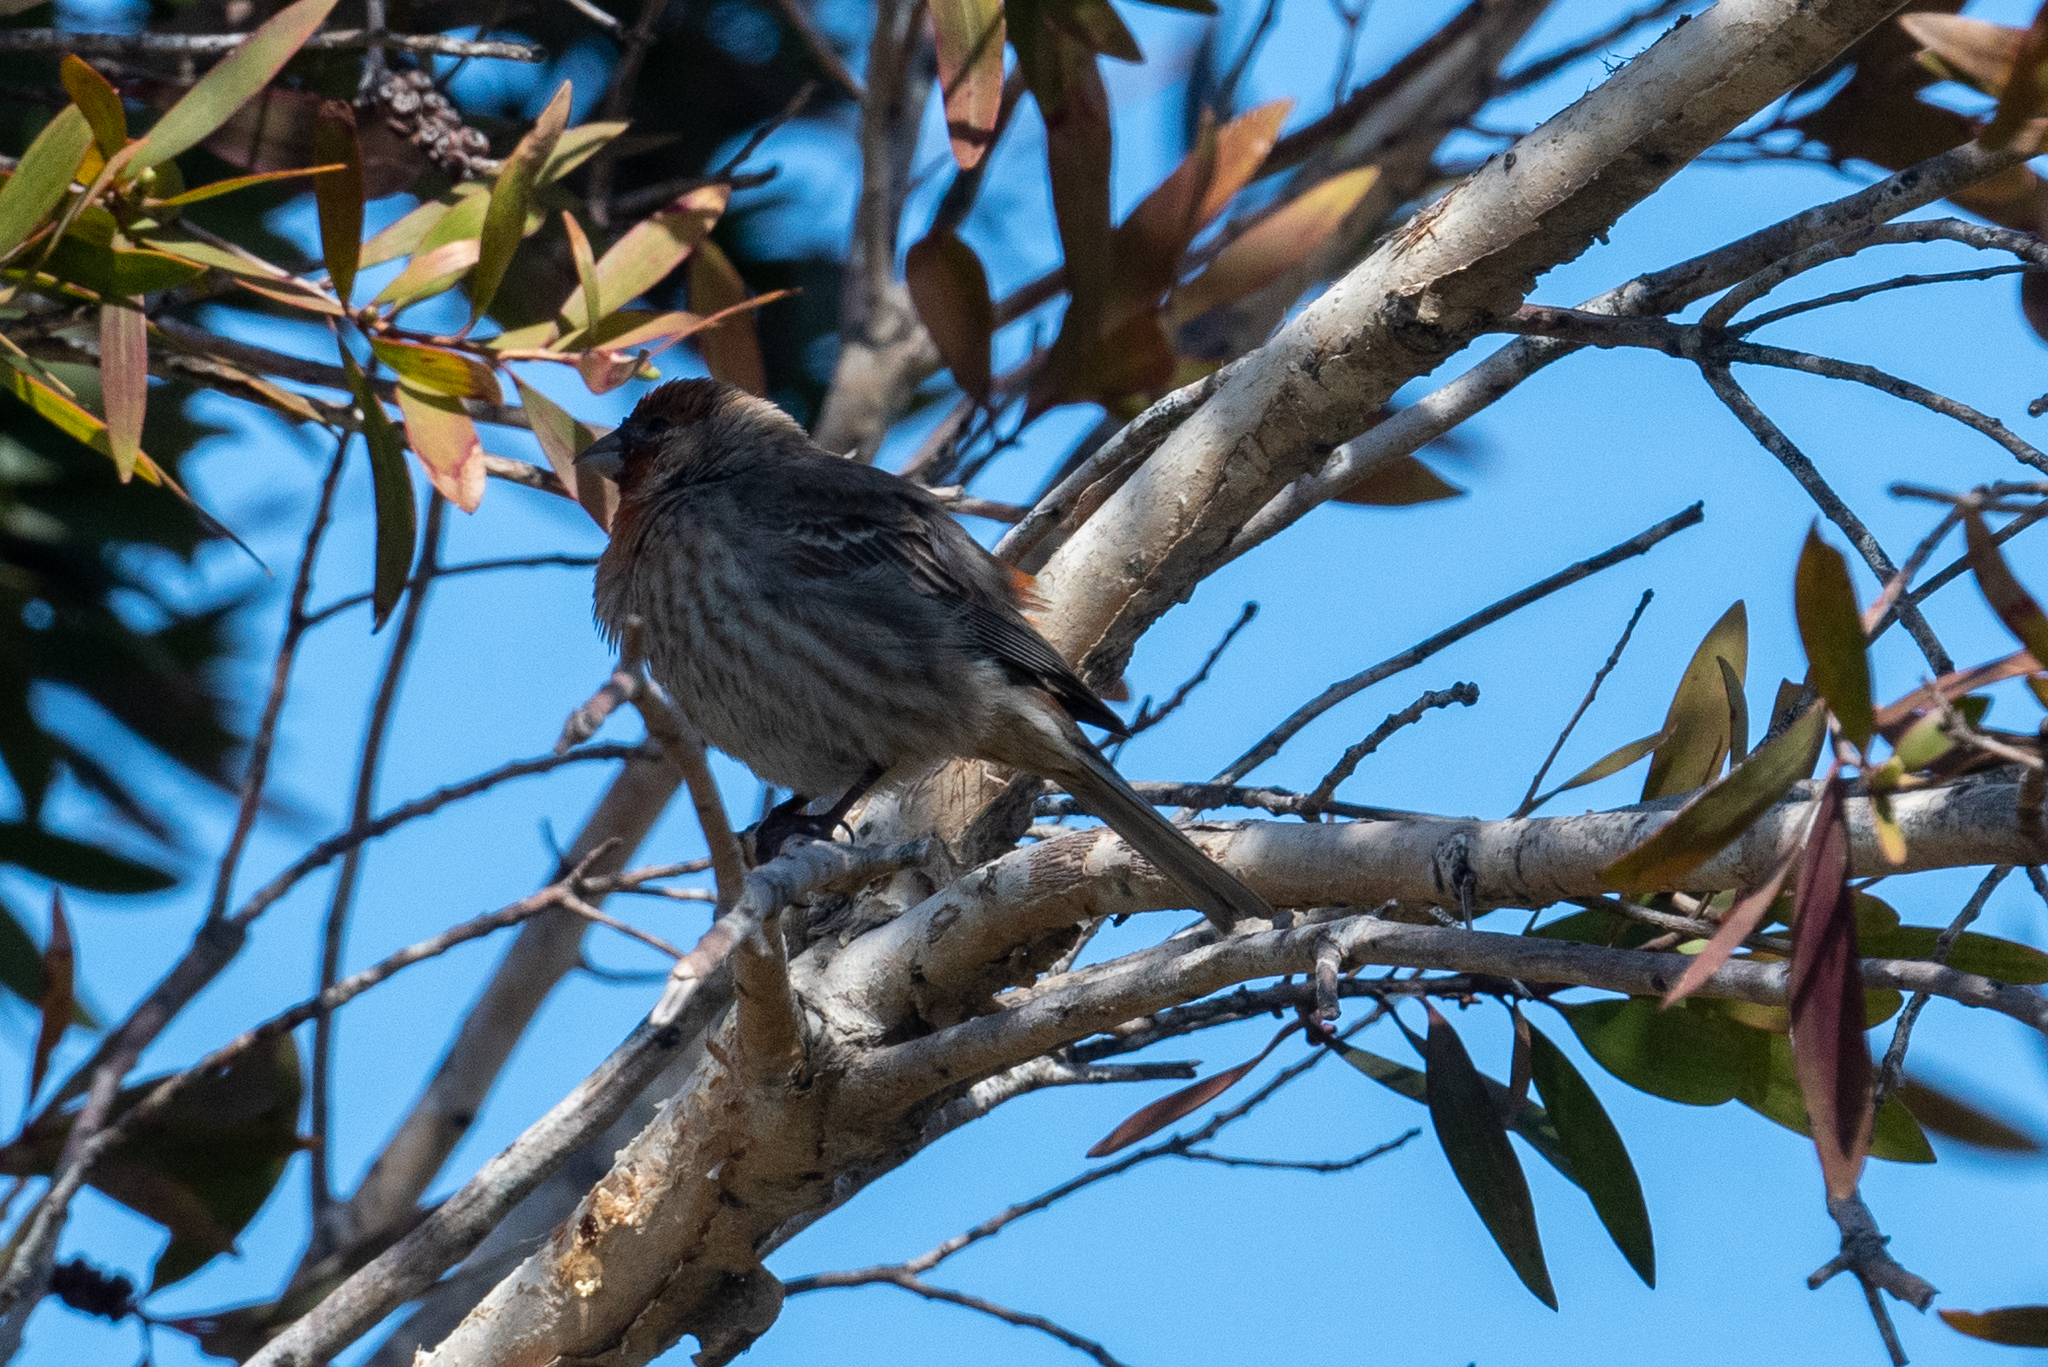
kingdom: Animalia
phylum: Chordata
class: Aves
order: Passeriformes
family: Fringillidae
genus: Haemorhous
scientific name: Haemorhous mexicanus
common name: House finch
